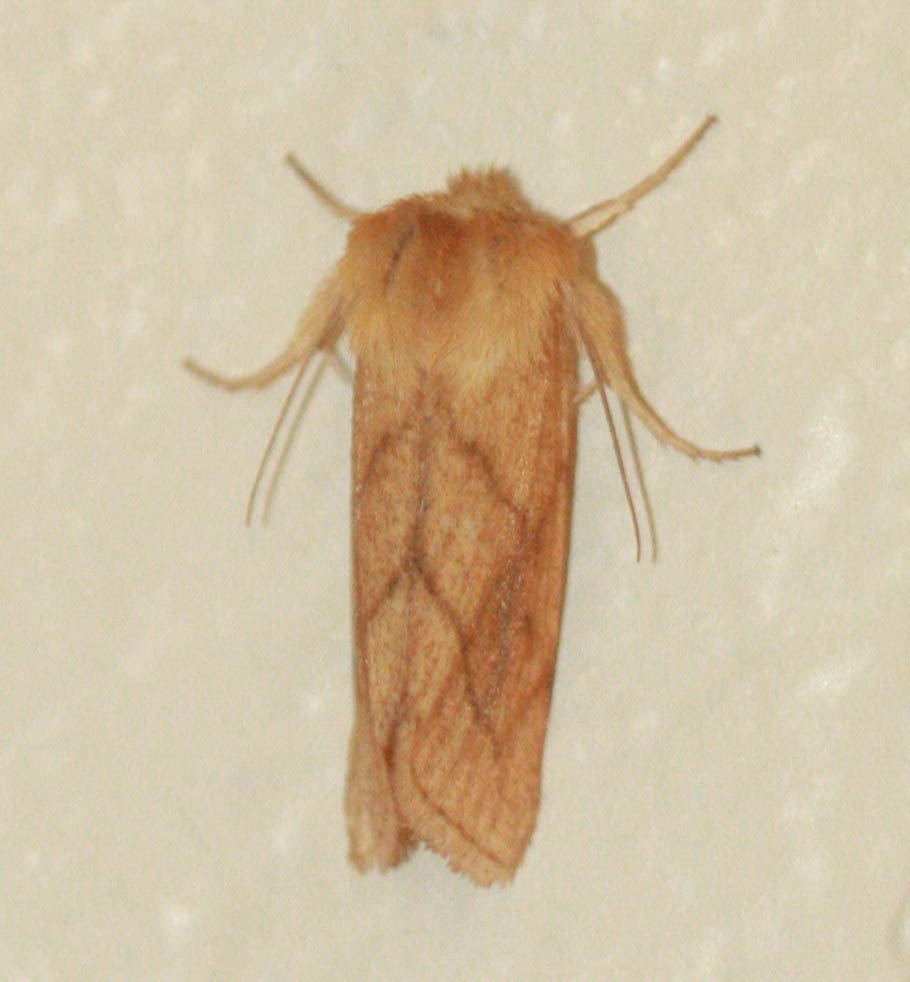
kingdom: Animalia
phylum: Arthropoda
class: Insecta
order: Lepidoptera
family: Noctuidae
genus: Zosteropoda
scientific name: Zosteropoda hirtipes
